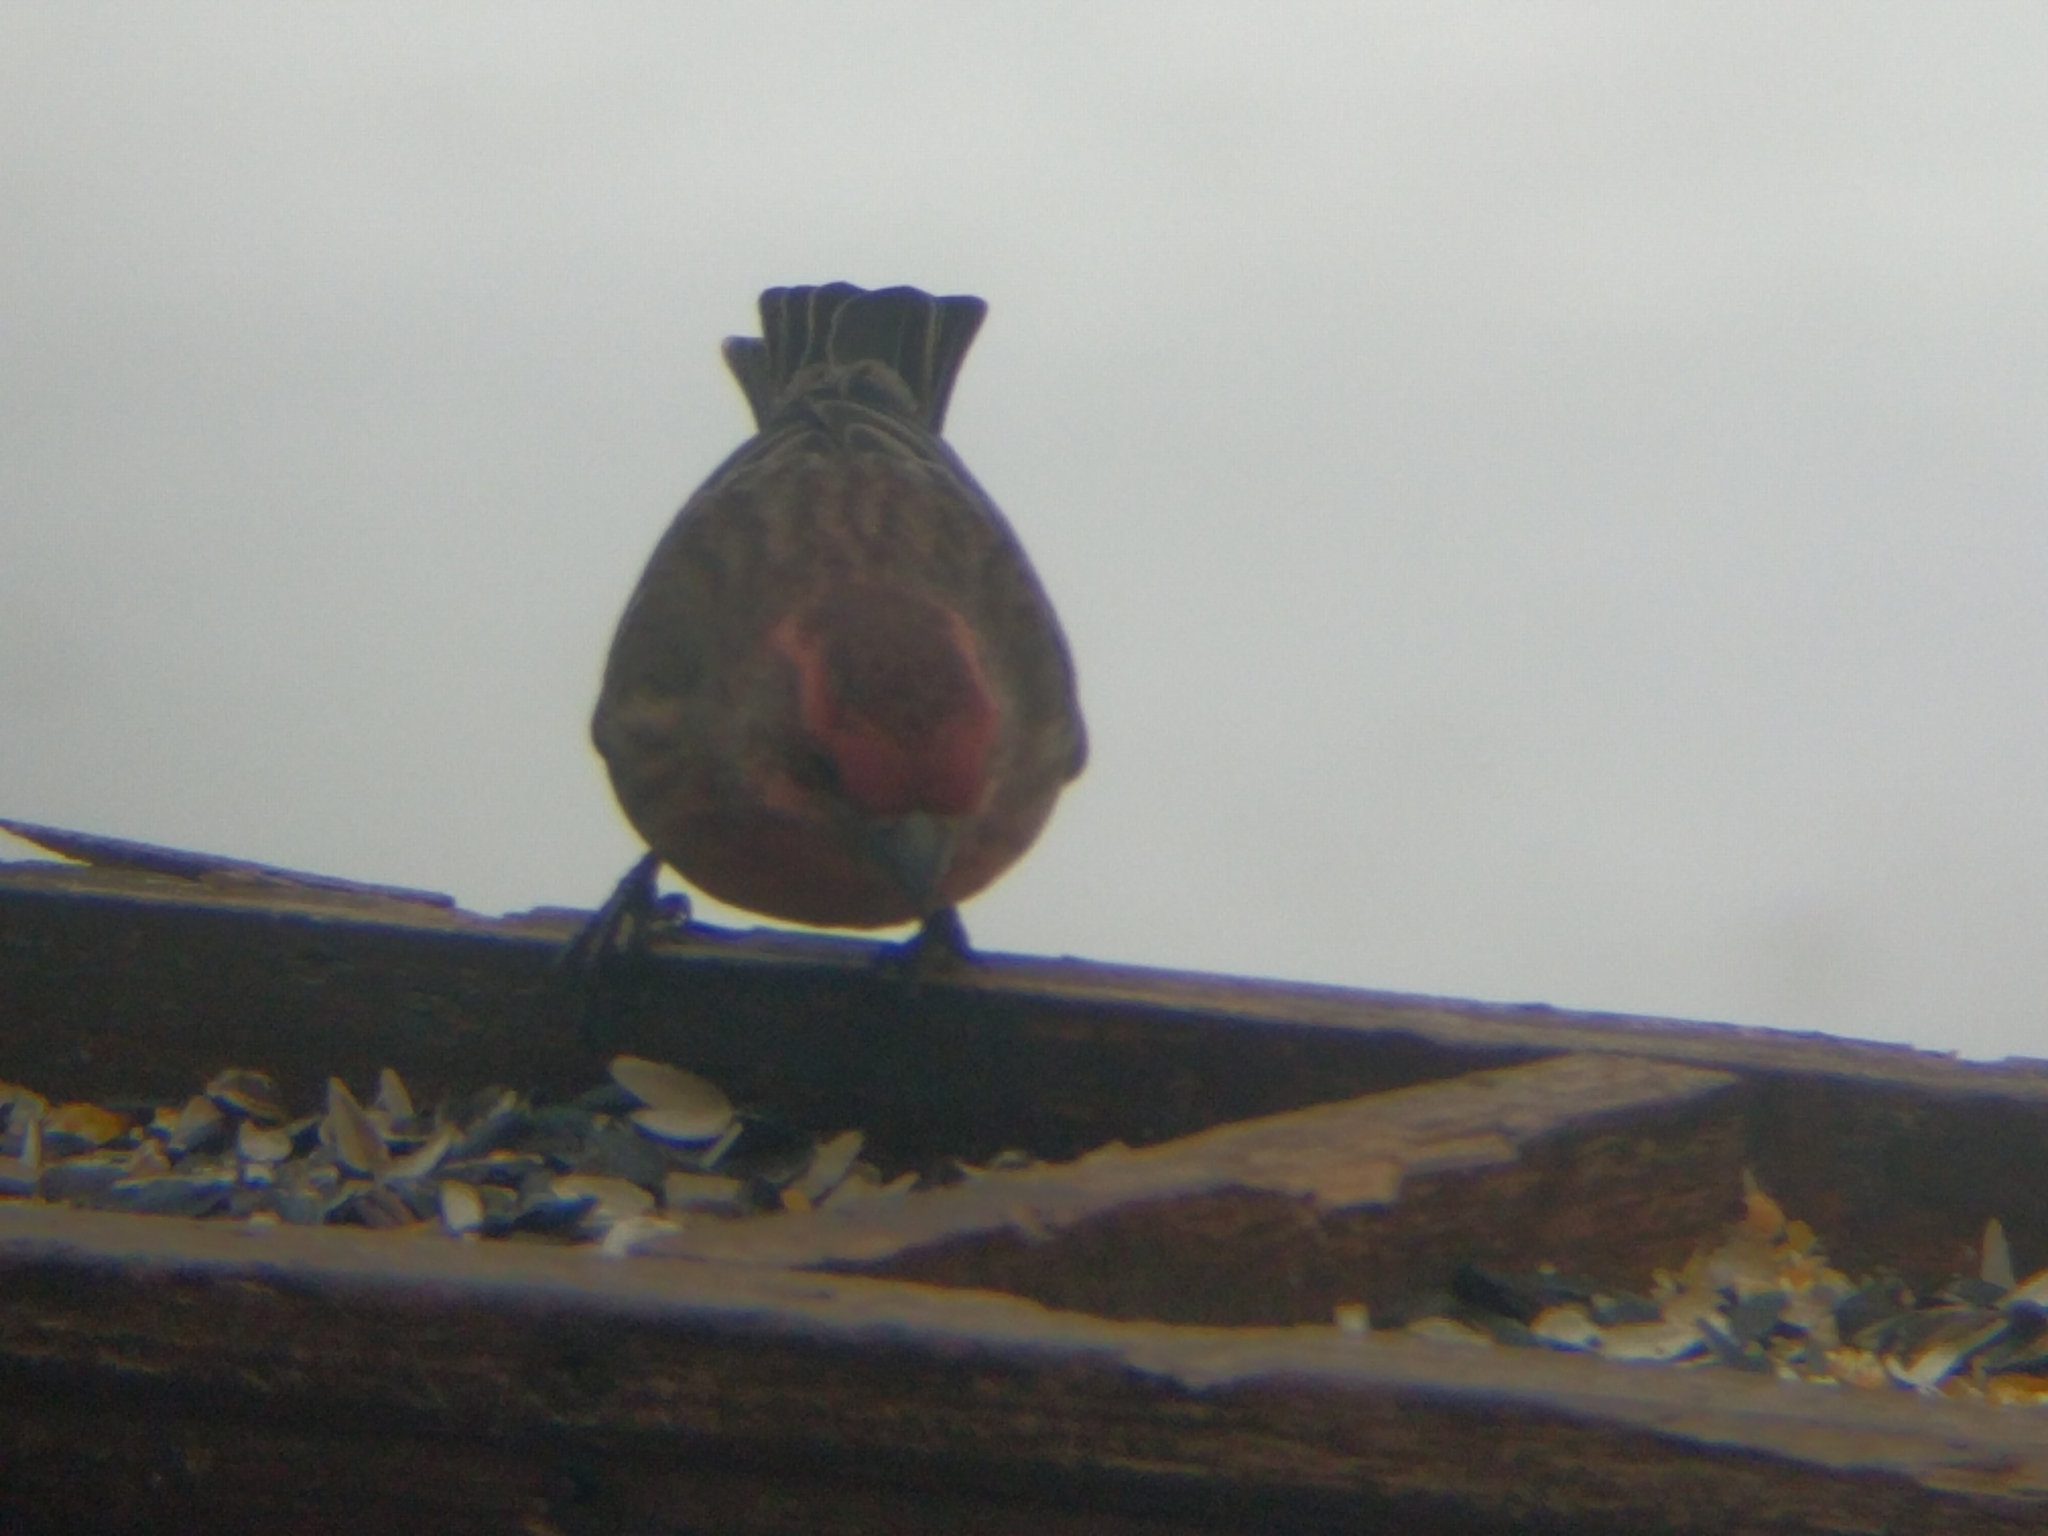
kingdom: Animalia
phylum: Chordata
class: Aves
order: Passeriformes
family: Fringillidae
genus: Haemorhous
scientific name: Haemorhous mexicanus
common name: House finch
